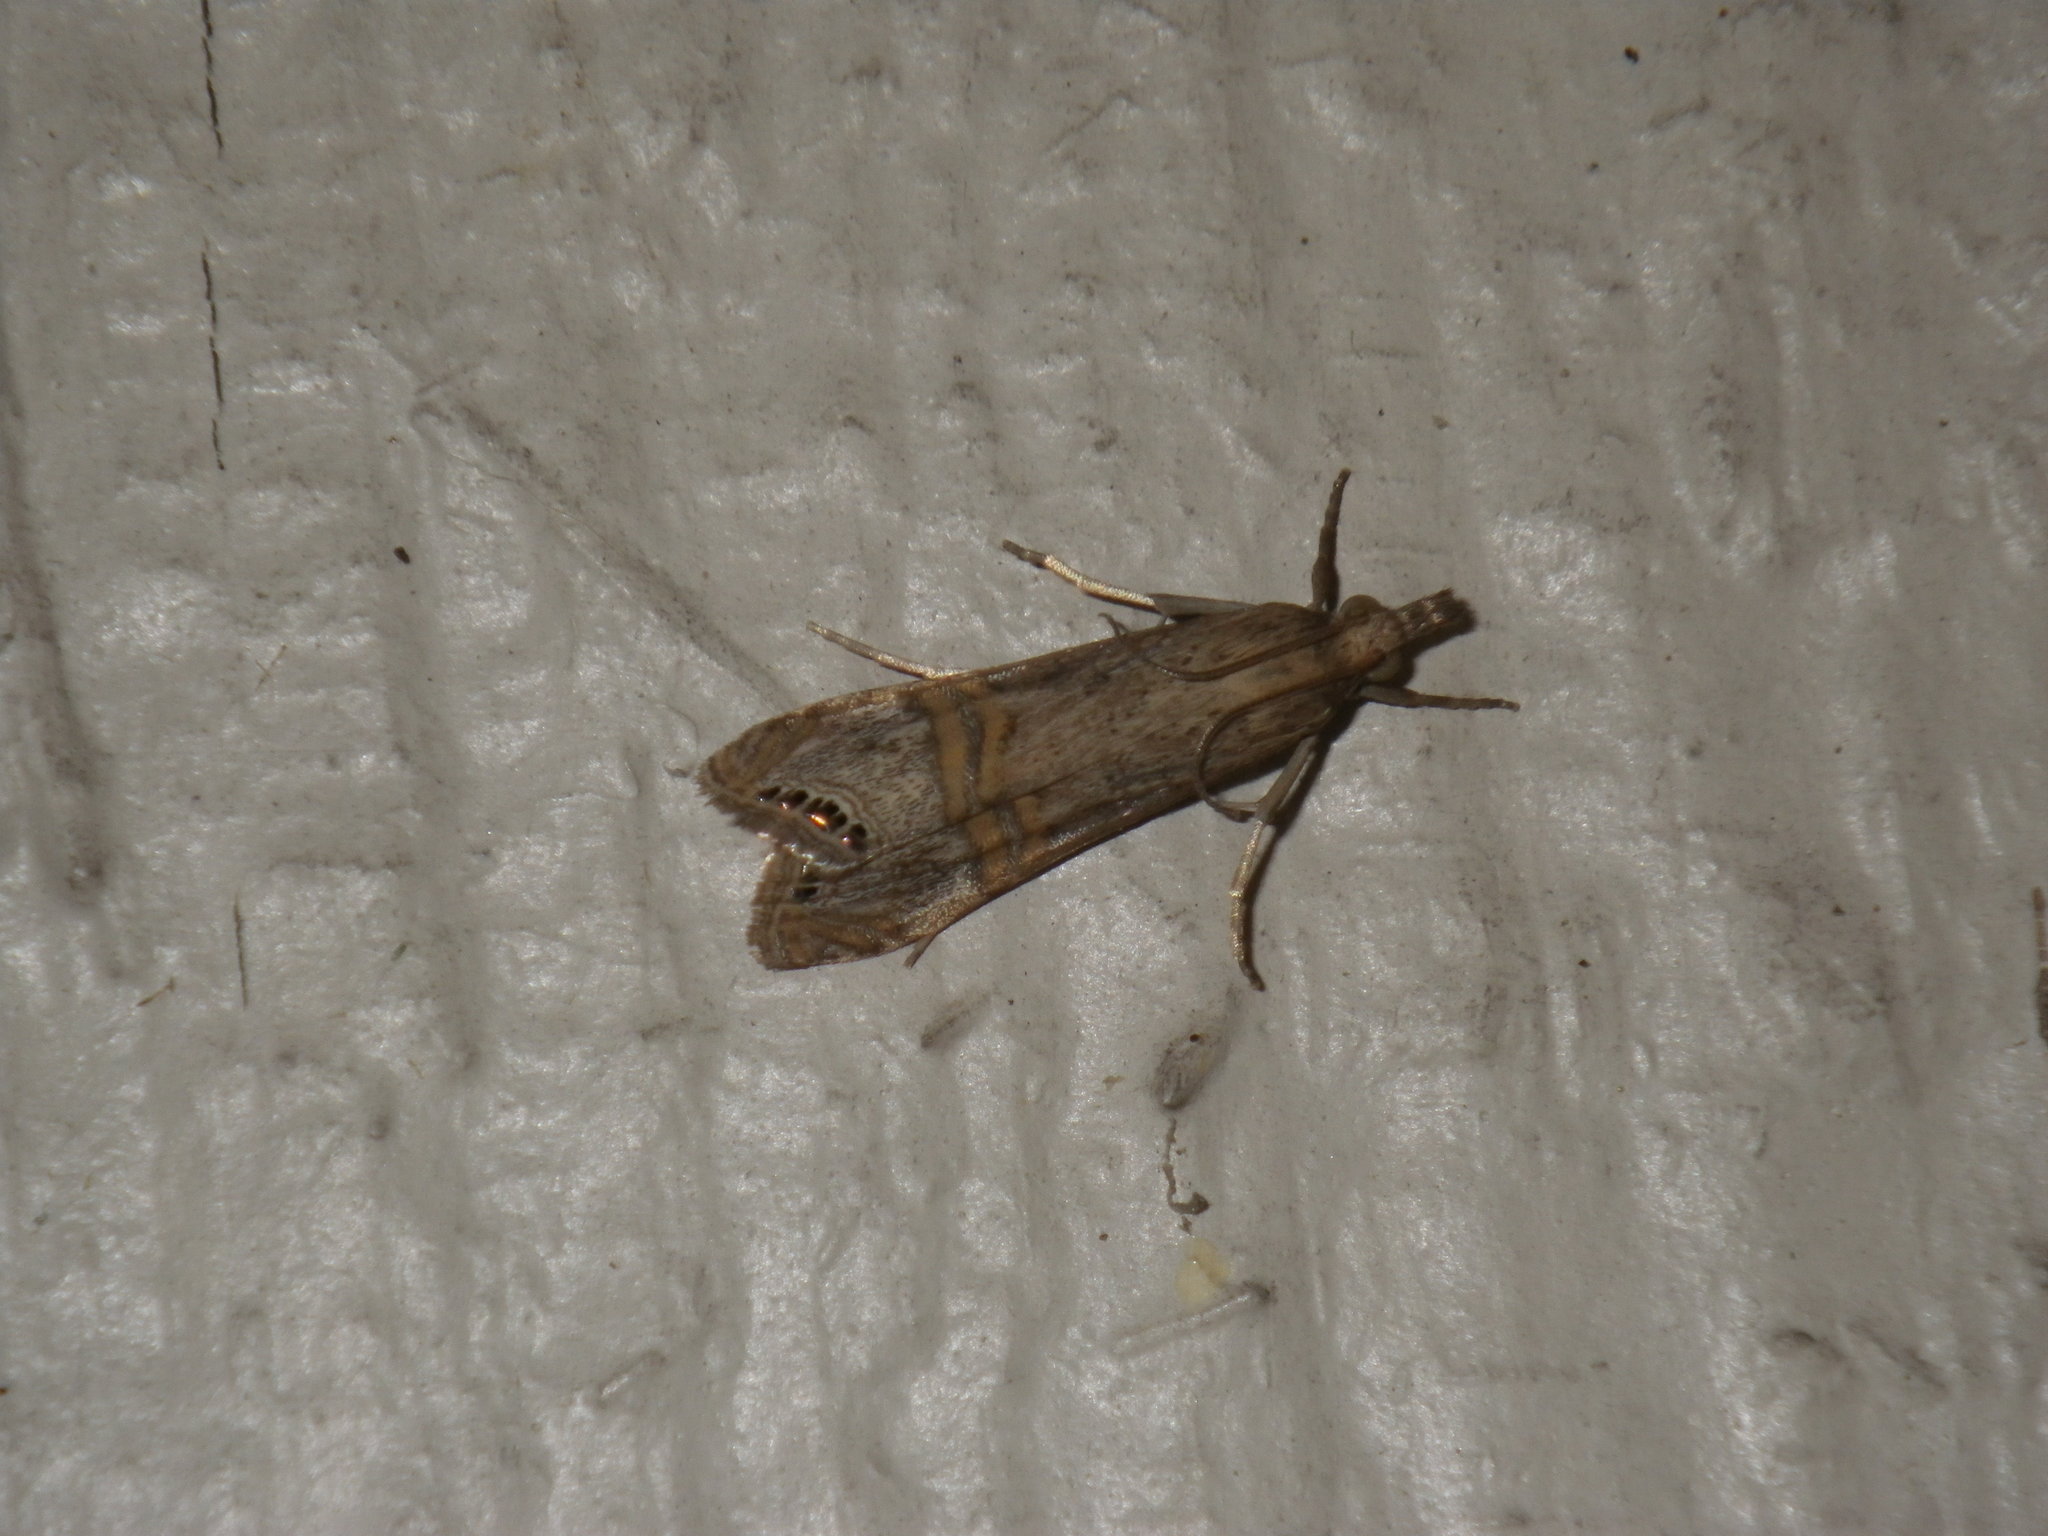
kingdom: Animalia
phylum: Arthropoda
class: Insecta
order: Lepidoptera
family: Crambidae
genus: Euchromius
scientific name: Euchromius ocellea
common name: Necklace veneer moth
